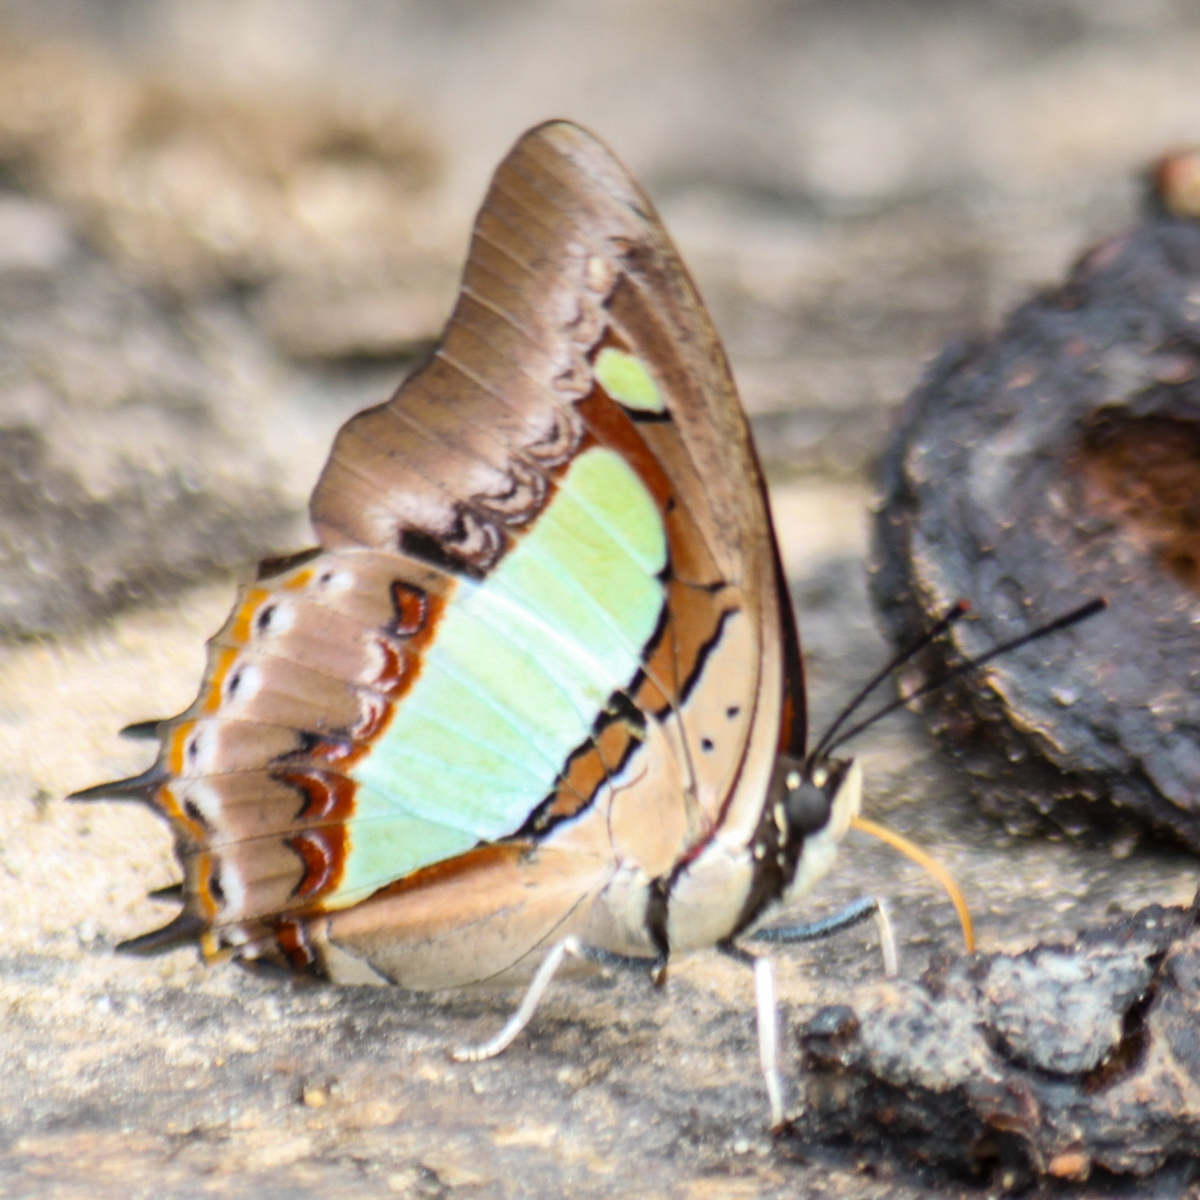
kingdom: Animalia
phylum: Arthropoda
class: Insecta
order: Lepidoptera
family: Nymphalidae
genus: Polyura
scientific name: Polyura athamas
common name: Common nawab
